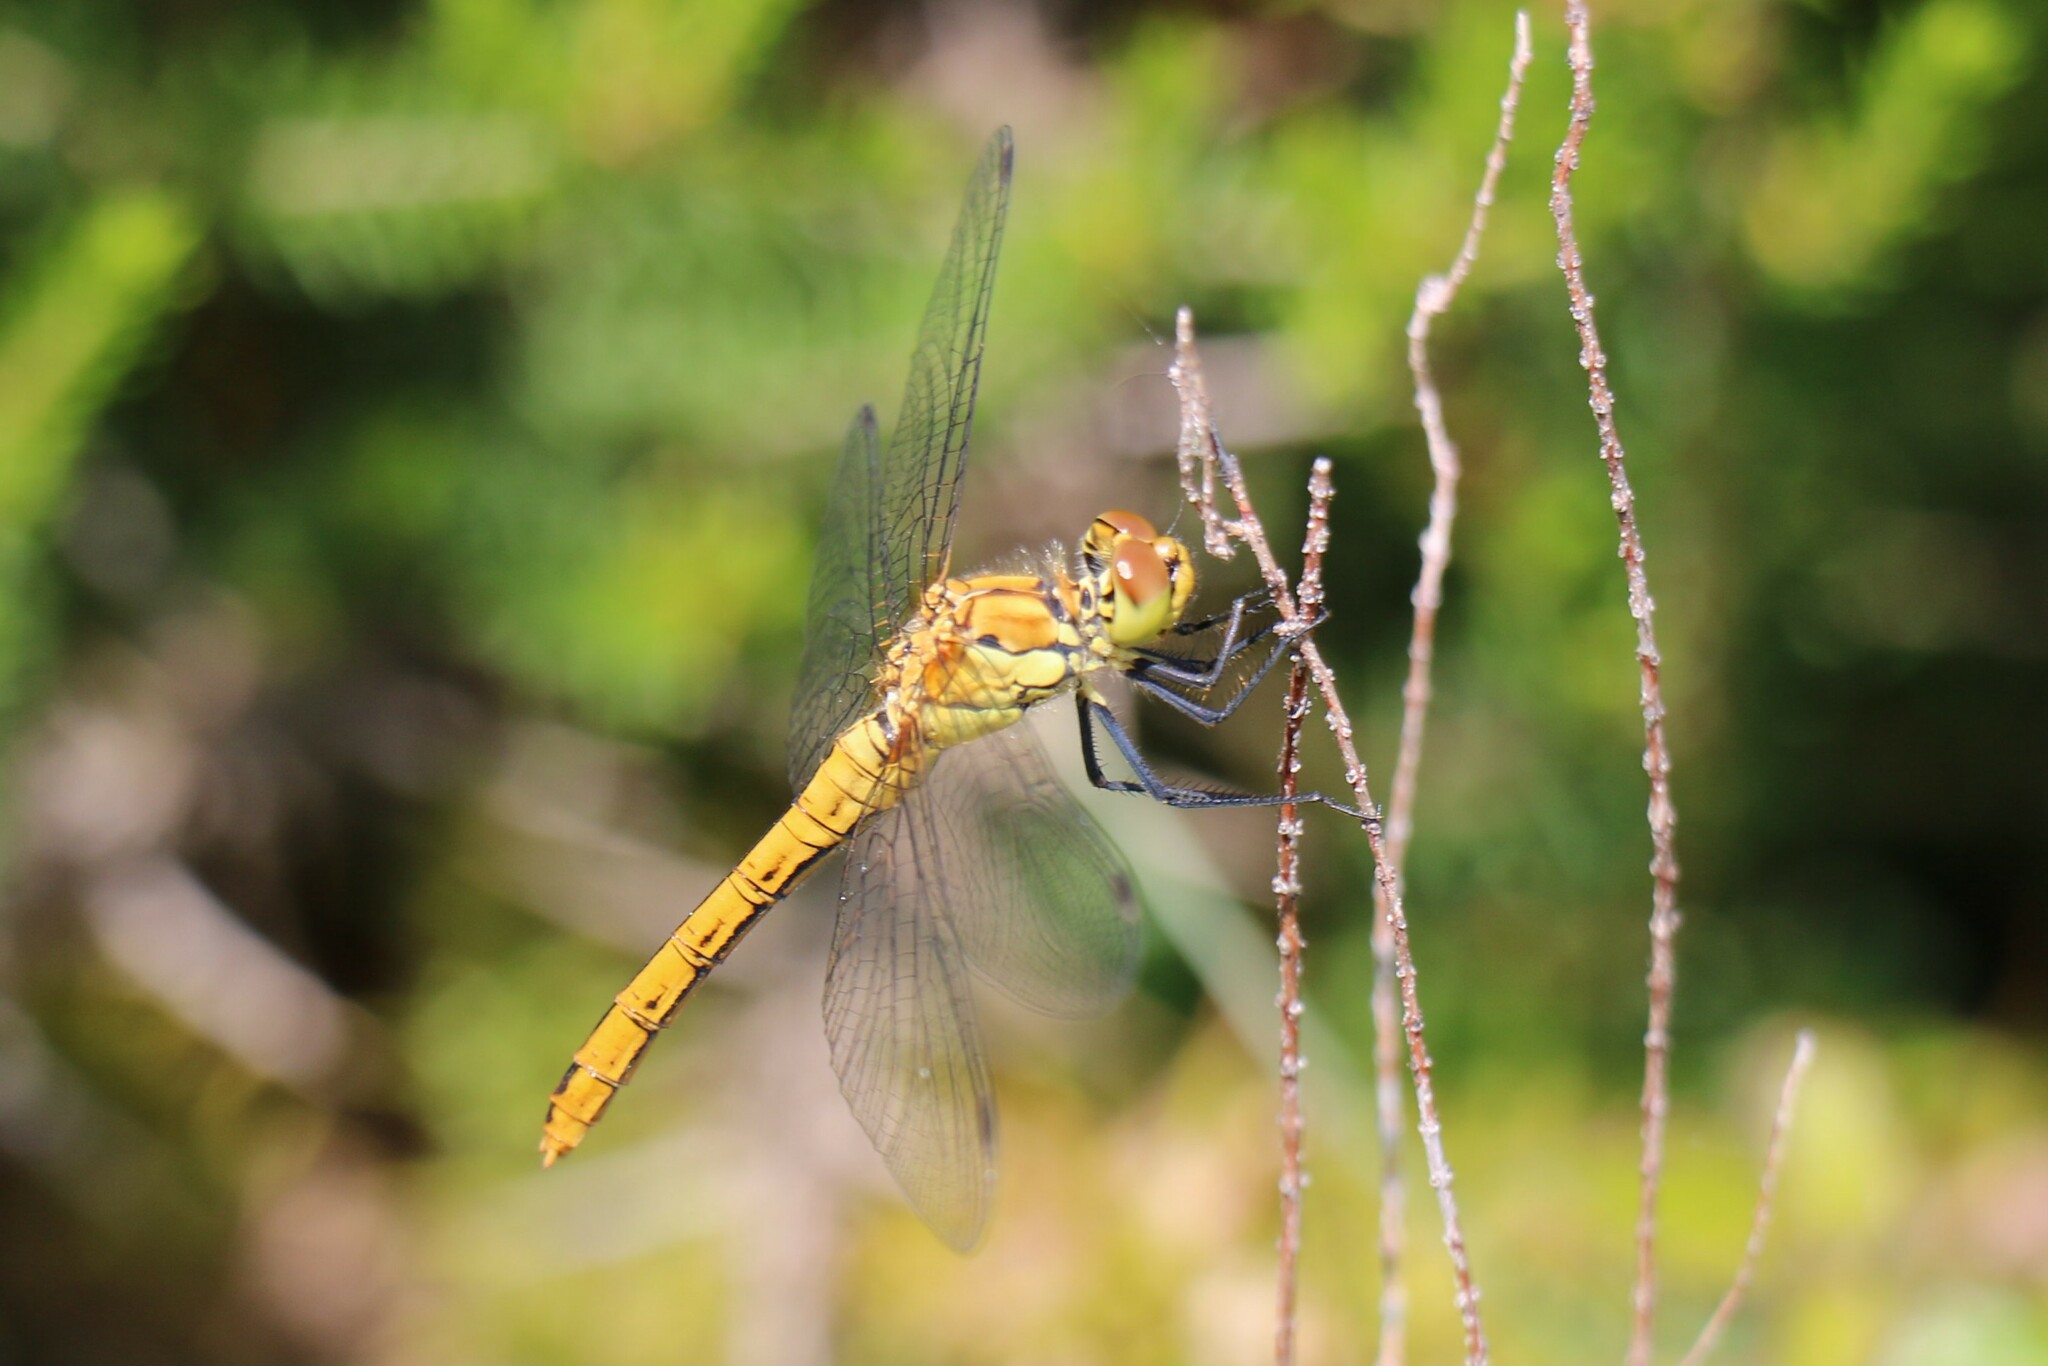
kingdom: Animalia
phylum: Arthropoda
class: Insecta
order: Odonata
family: Libellulidae
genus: Sympetrum
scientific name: Sympetrum sanguineum
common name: Ruddy darter
